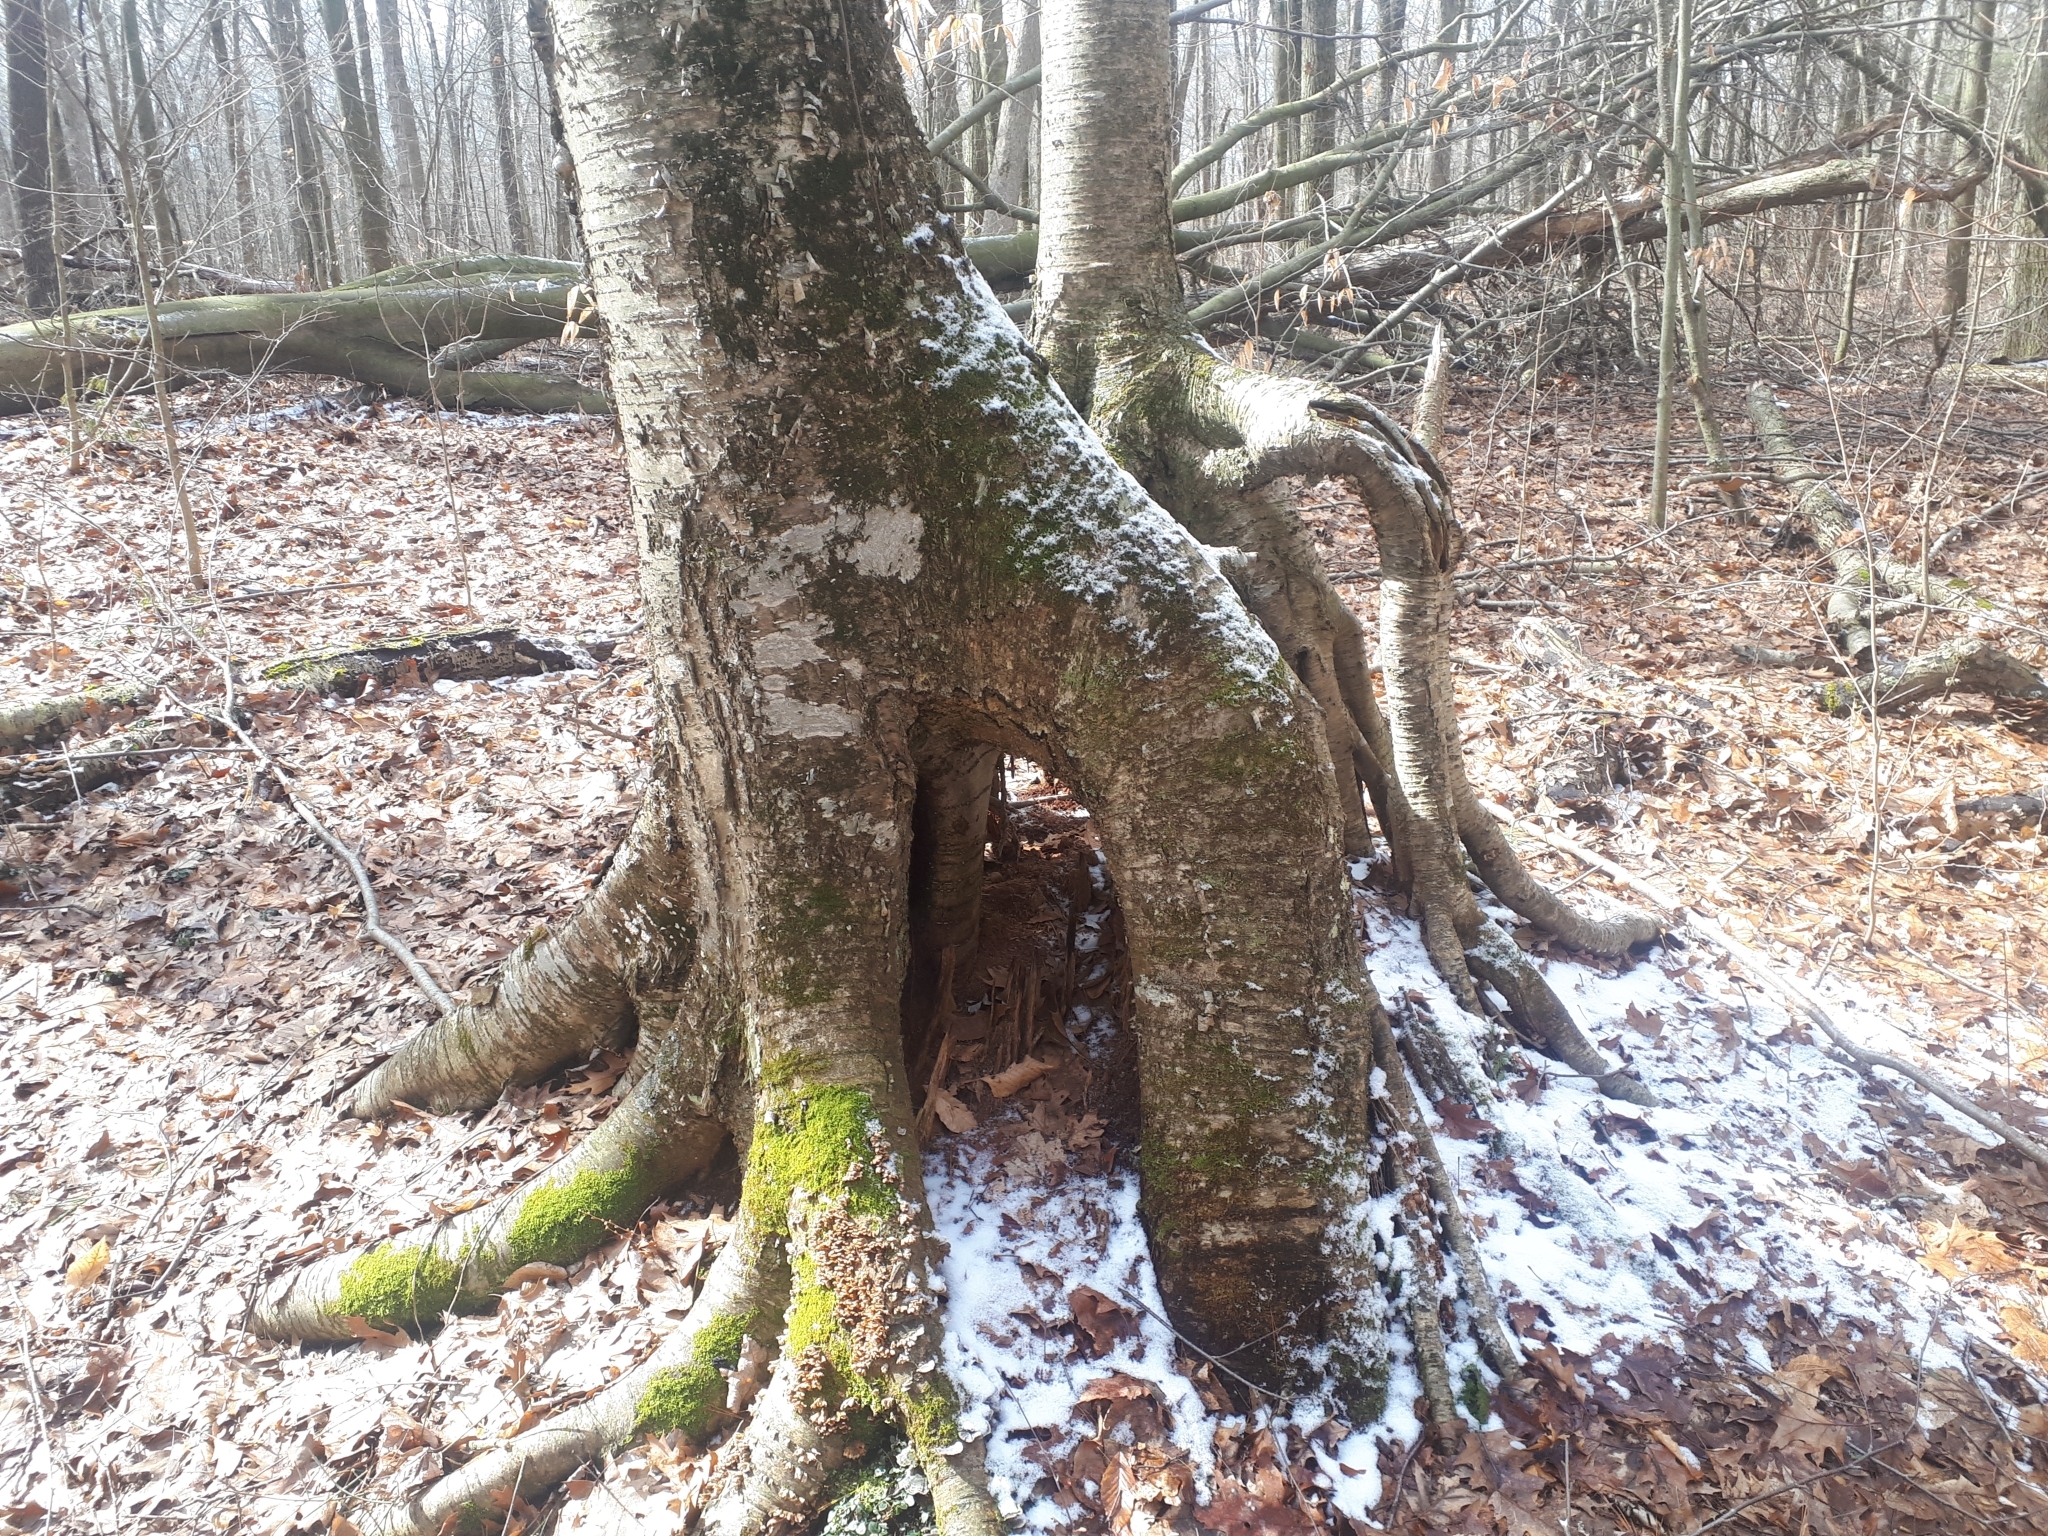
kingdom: Plantae
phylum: Tracheophyta
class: Magnoliopsida
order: Fagales
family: Betulaceae
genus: Betula
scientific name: Betula alleghaniensis
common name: Yellow birch
